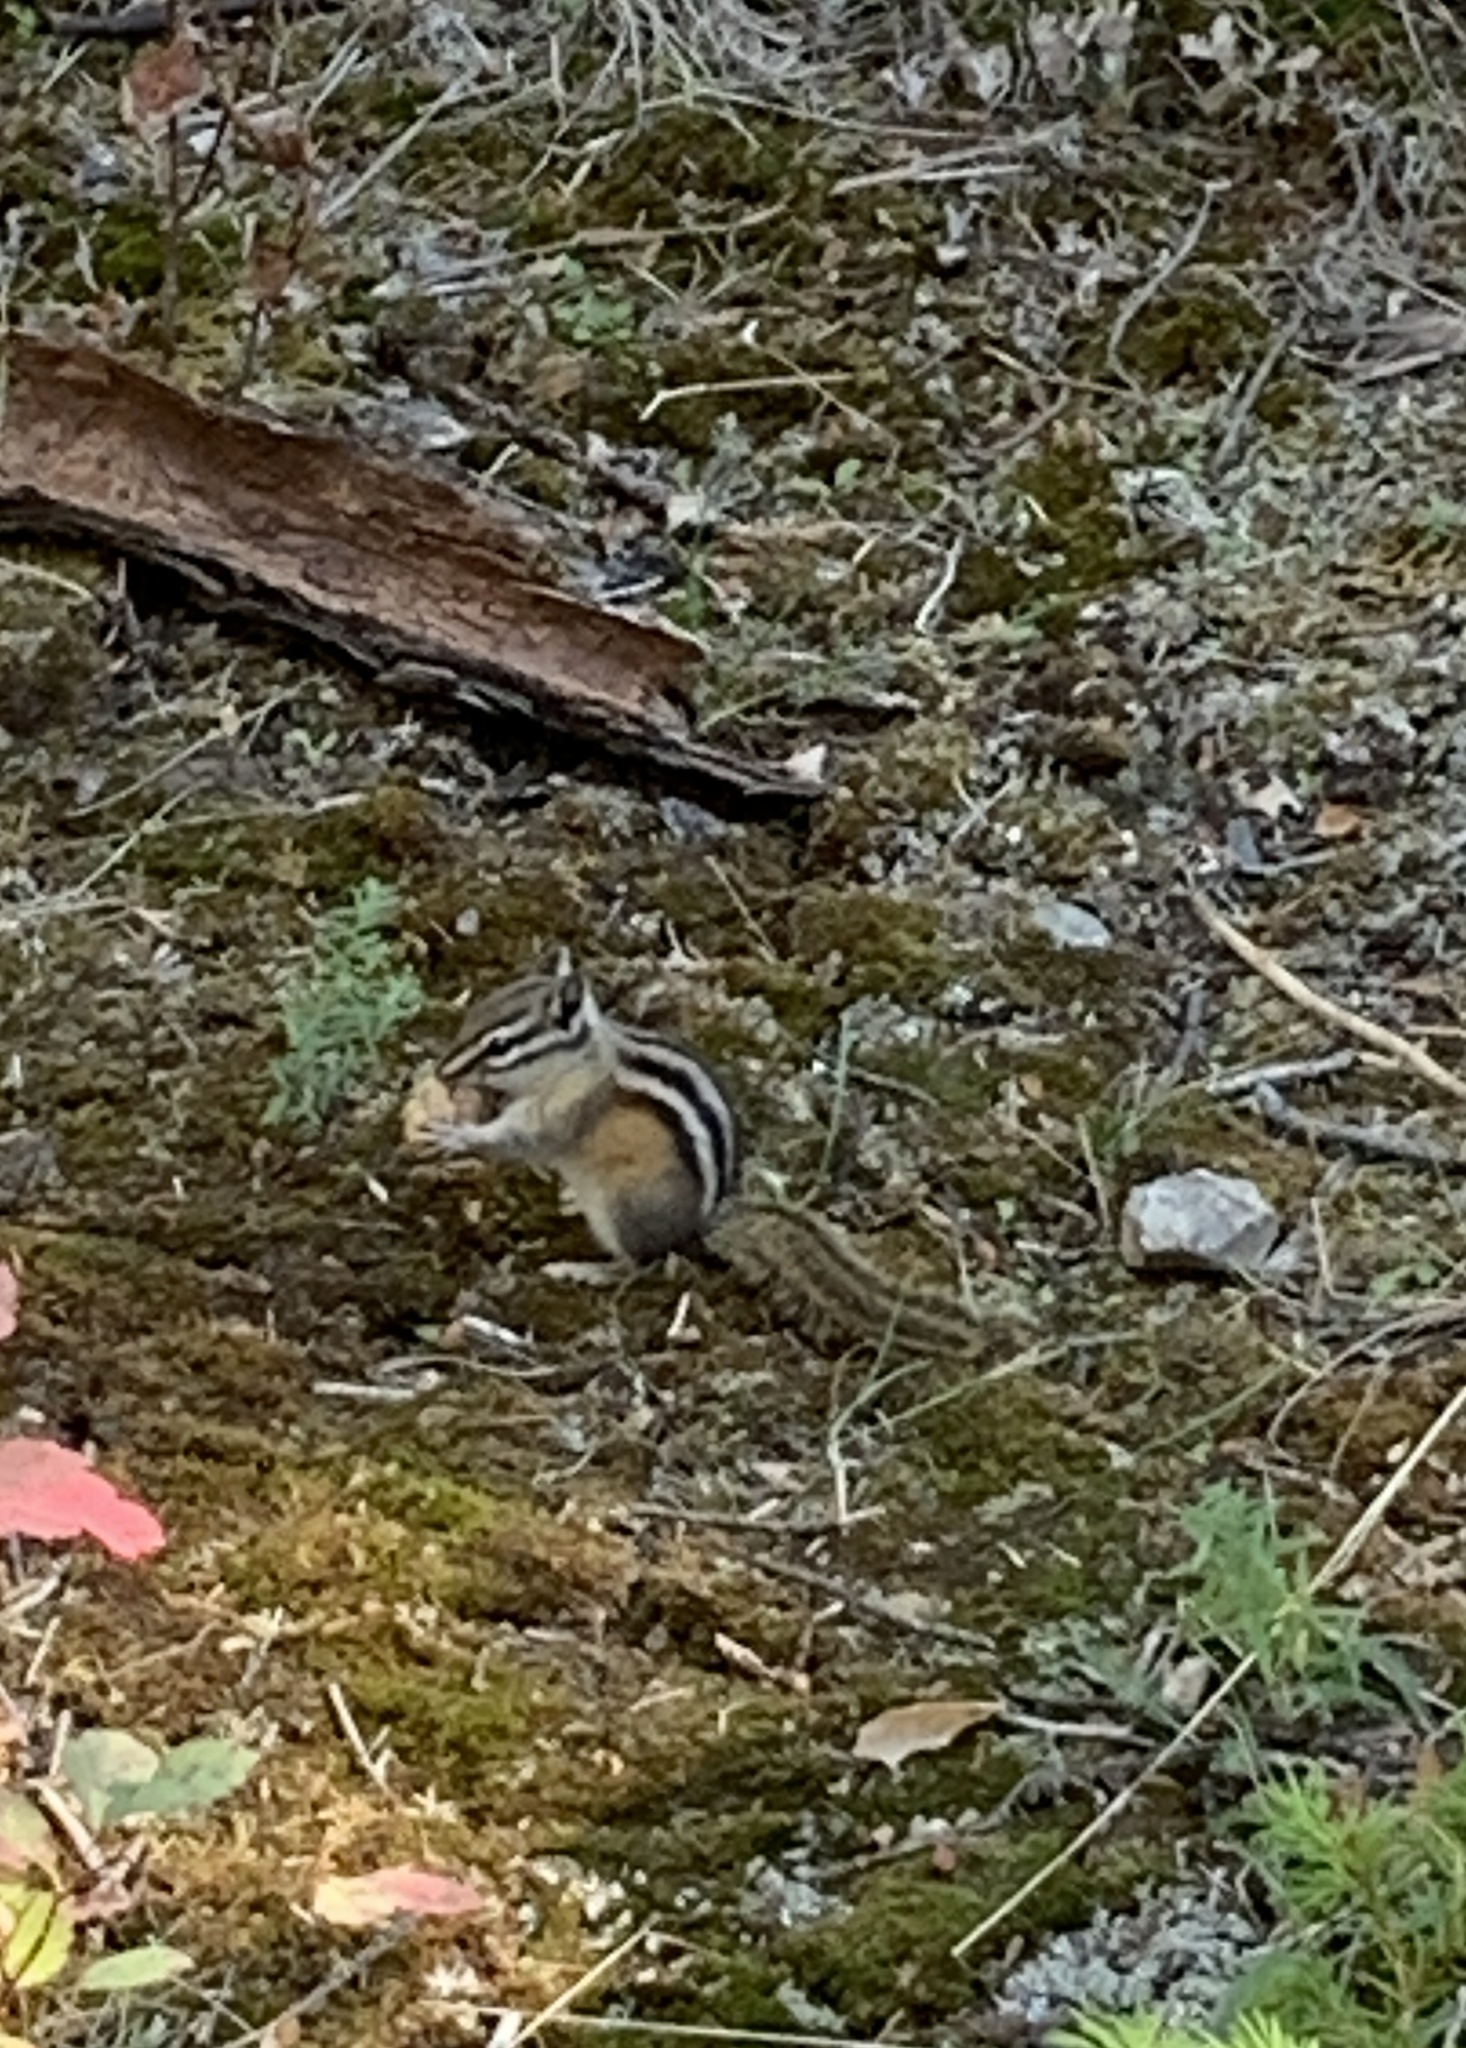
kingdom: Animalia
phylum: Chordata
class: Mammalia
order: Rodentia
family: Sciuridae
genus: Tamias
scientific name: Tamias minimus
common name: Least chipmunk
